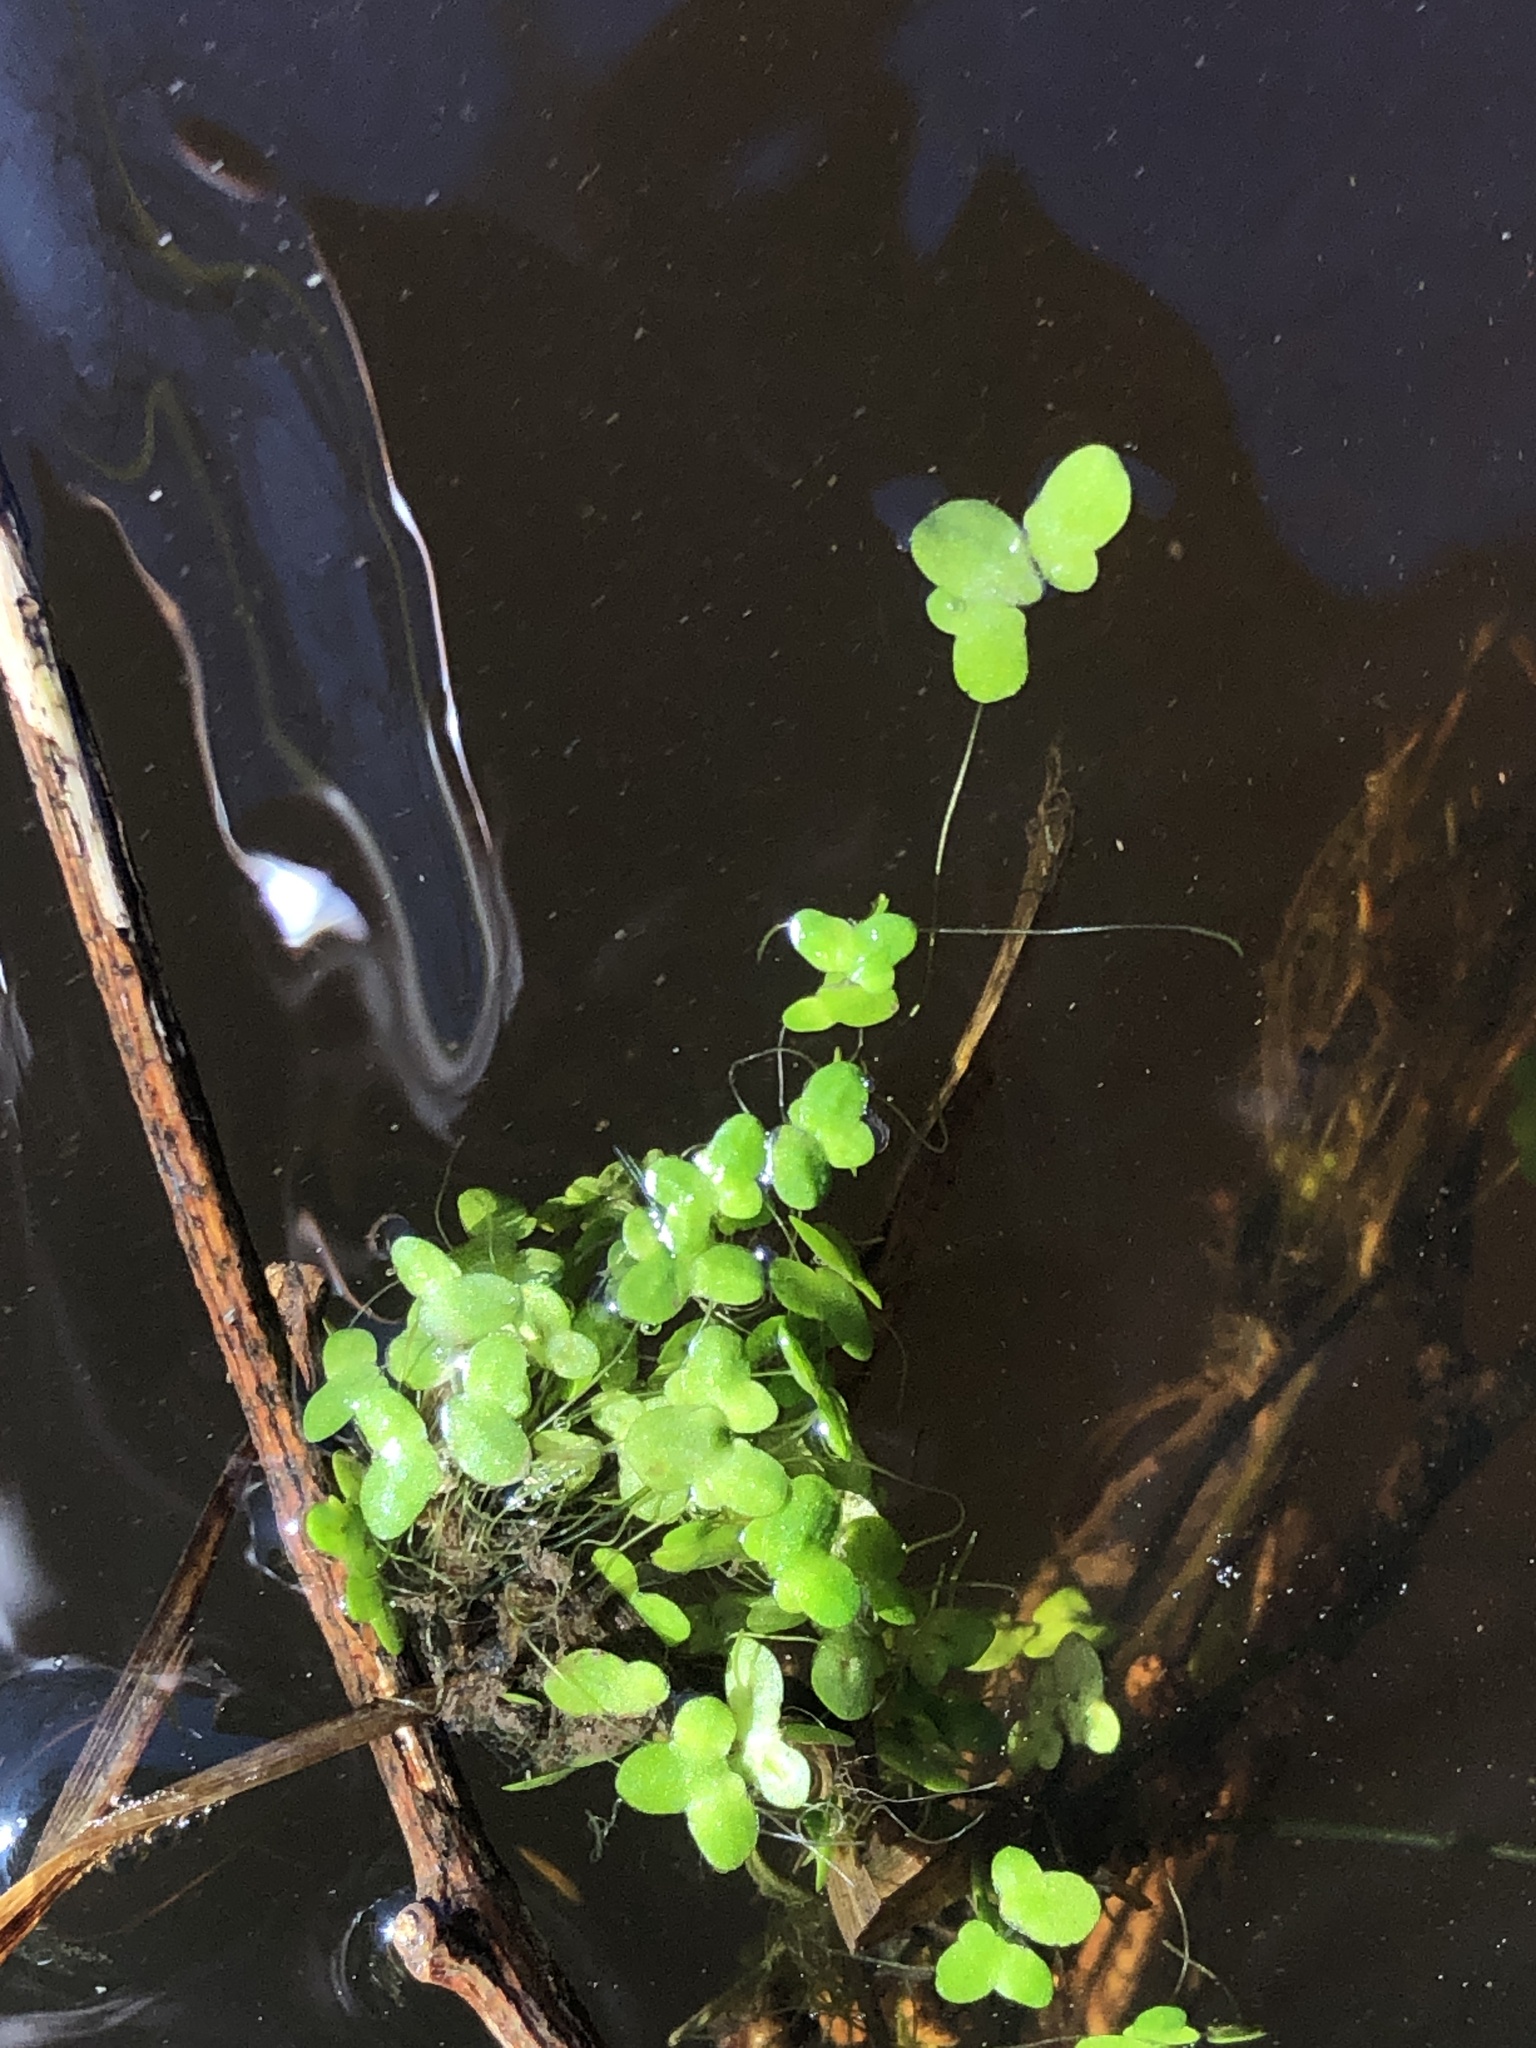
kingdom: Plantae
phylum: Tracheophyta
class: Liliopsida
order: Alismatales
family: Araceae
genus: Lemna
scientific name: Lemna disperma
